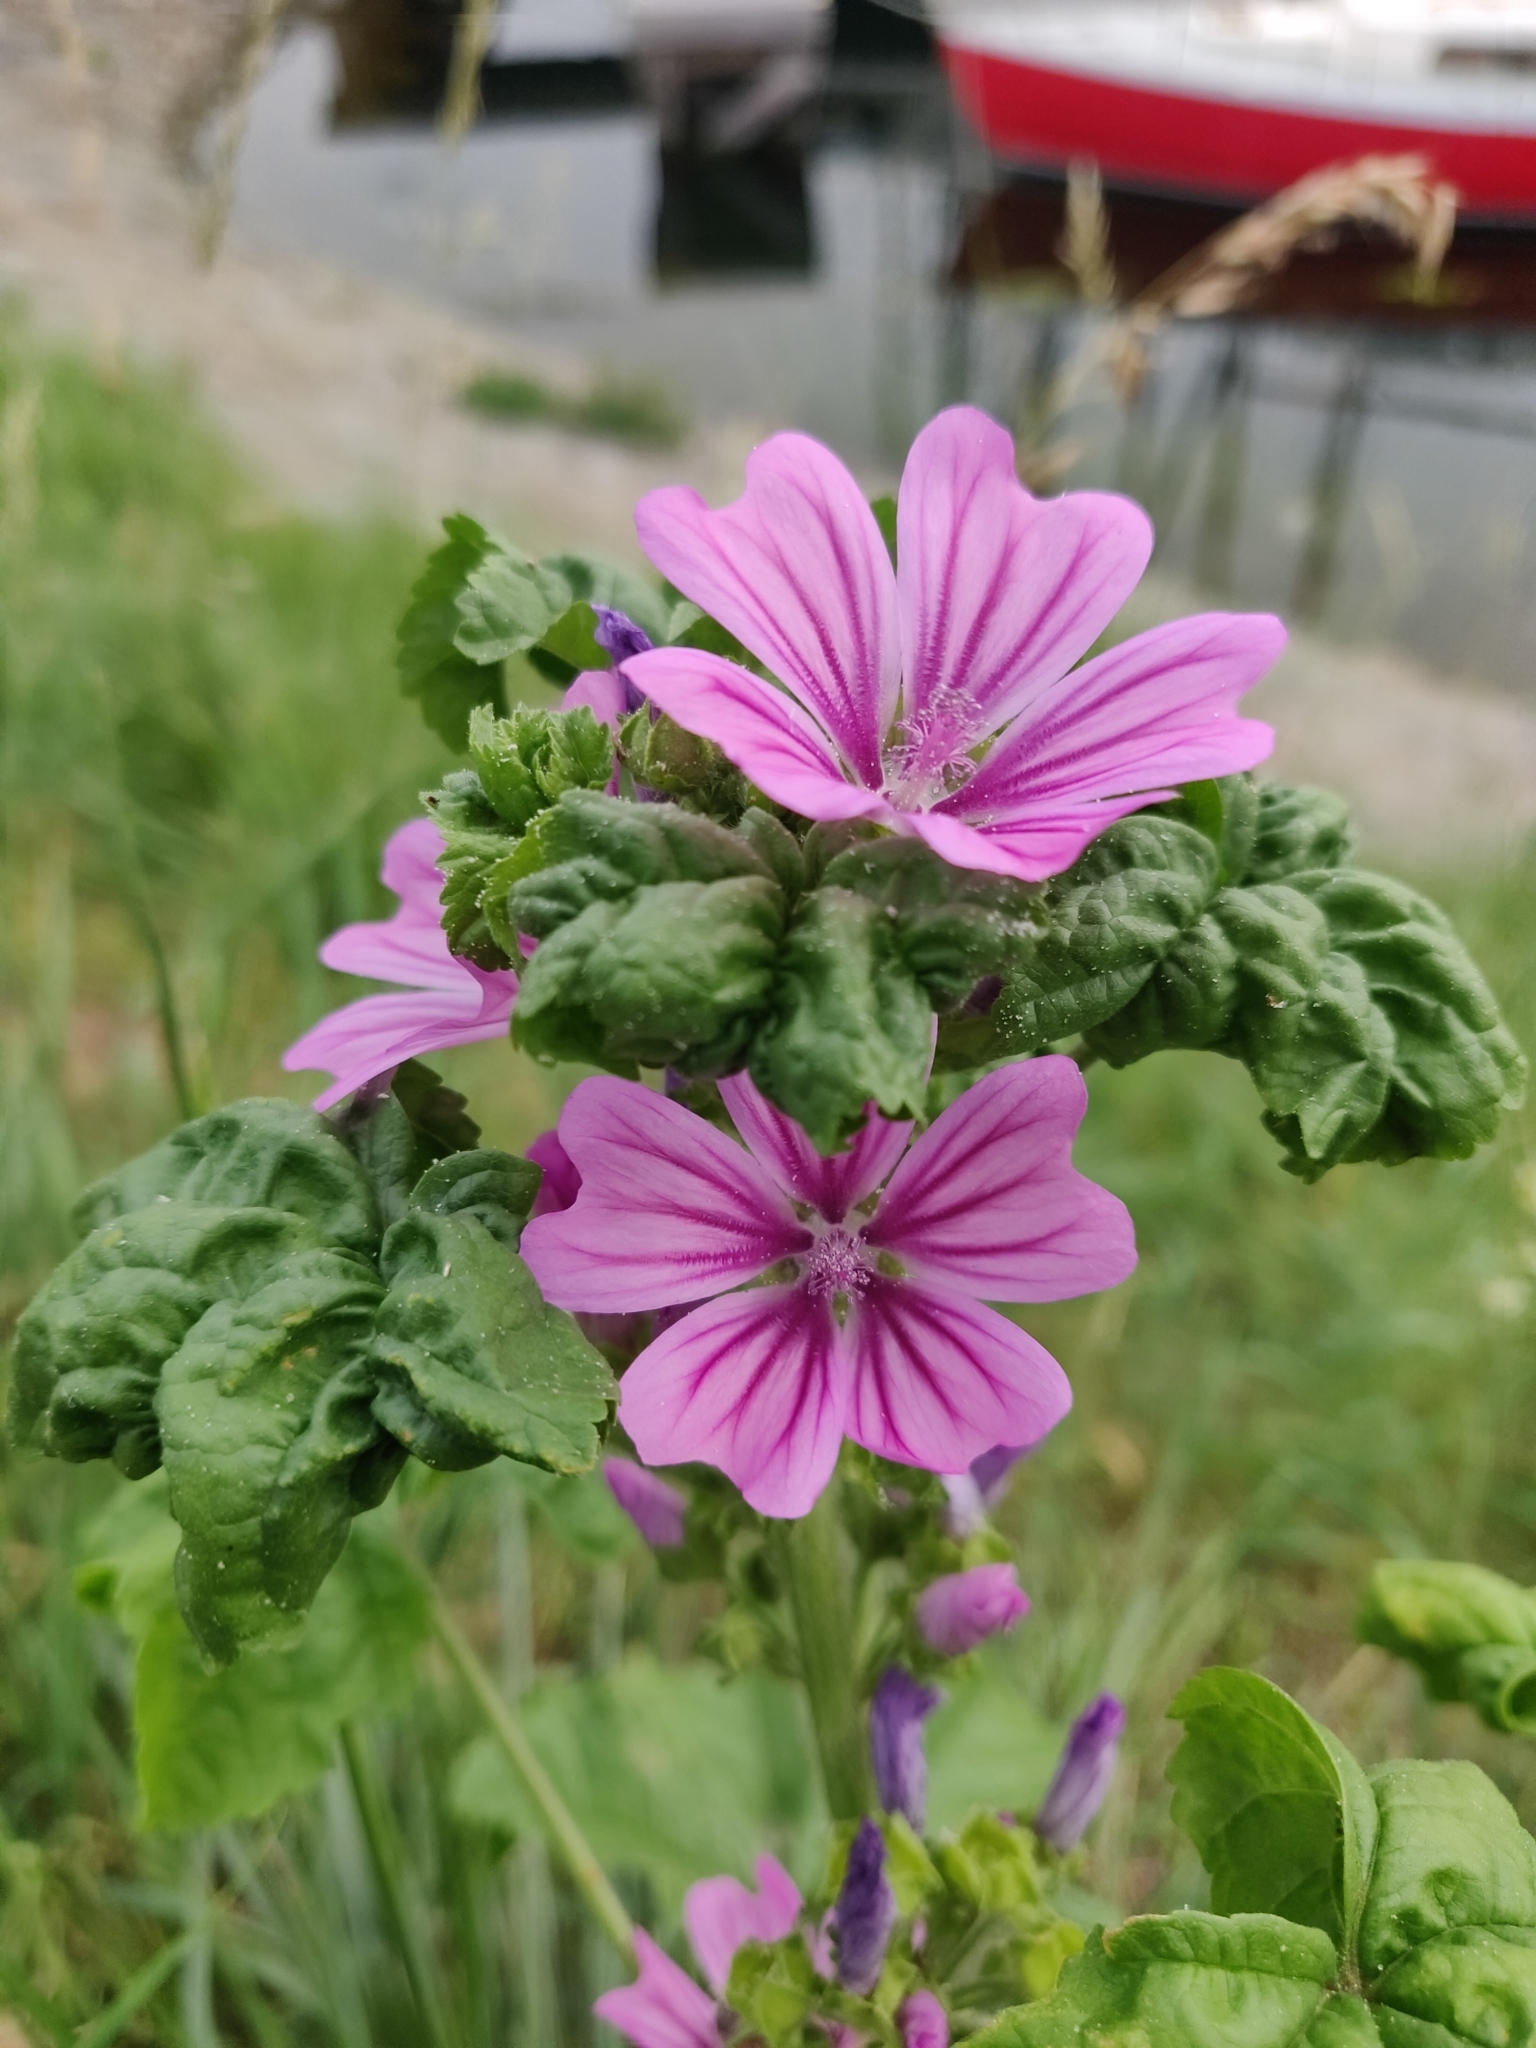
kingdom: Plantae
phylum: Tracheophyta
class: Magnoliopsida
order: Malvales
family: Malvaceae
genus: Malva
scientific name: Malva sylvestris
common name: Common mallow
